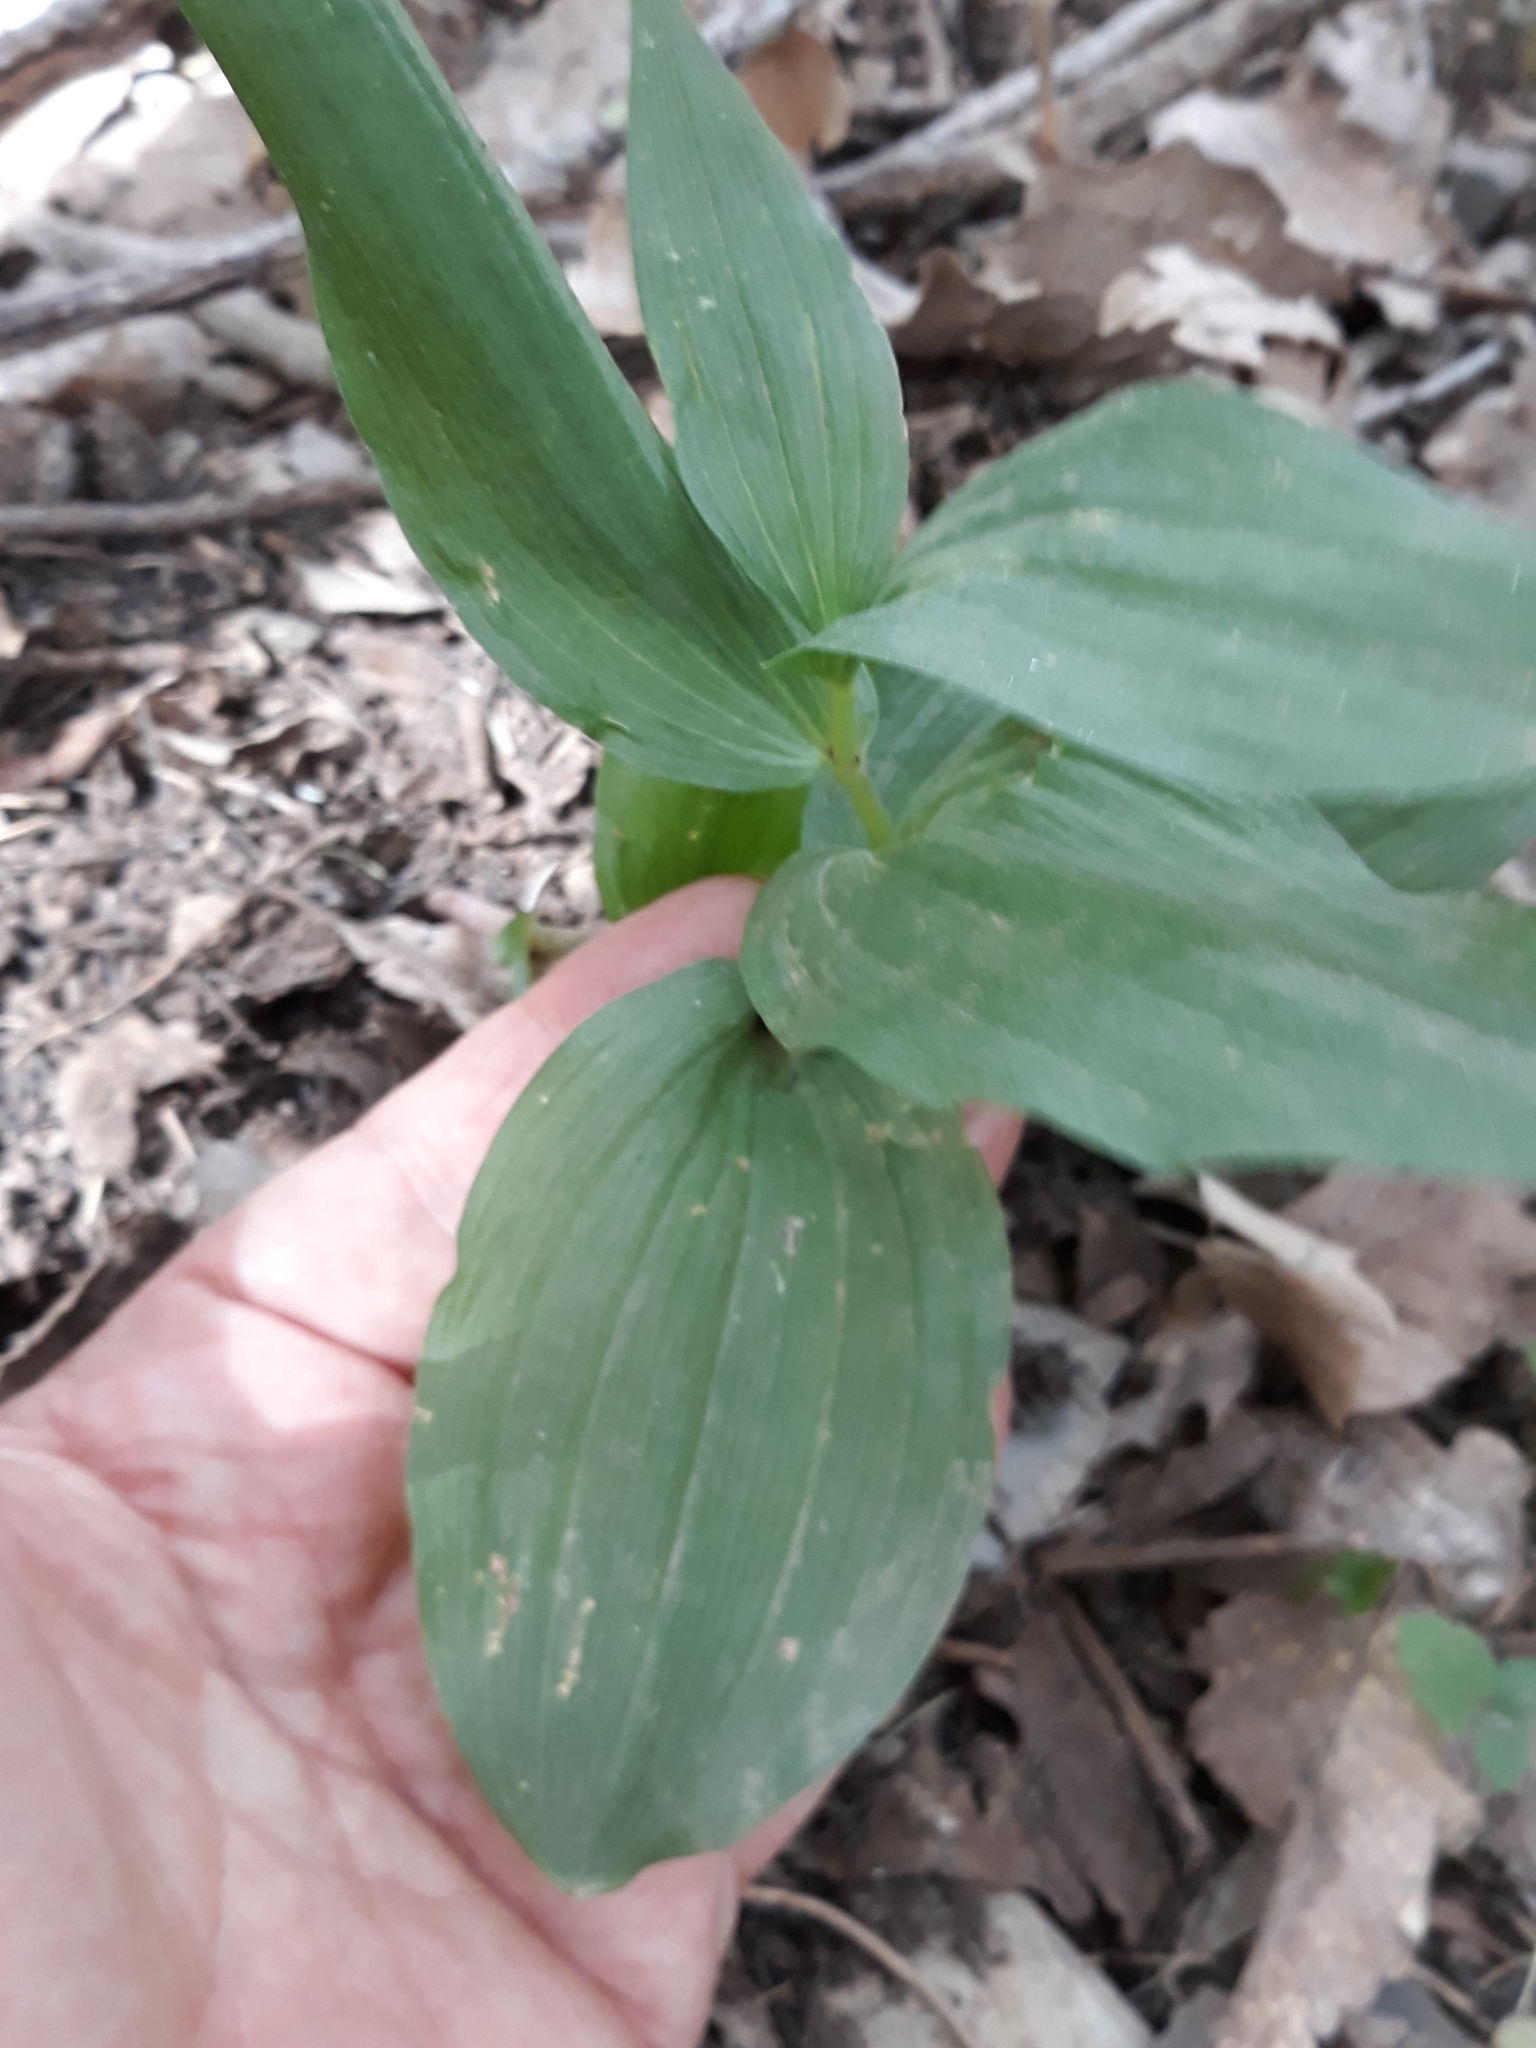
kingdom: Plantae
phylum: Tracheophyta
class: Liliopsida
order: Asparagales
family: Orchidaceae
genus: Epipactis
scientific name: Epipactis helleborine
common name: Broad-leaved helleborine
